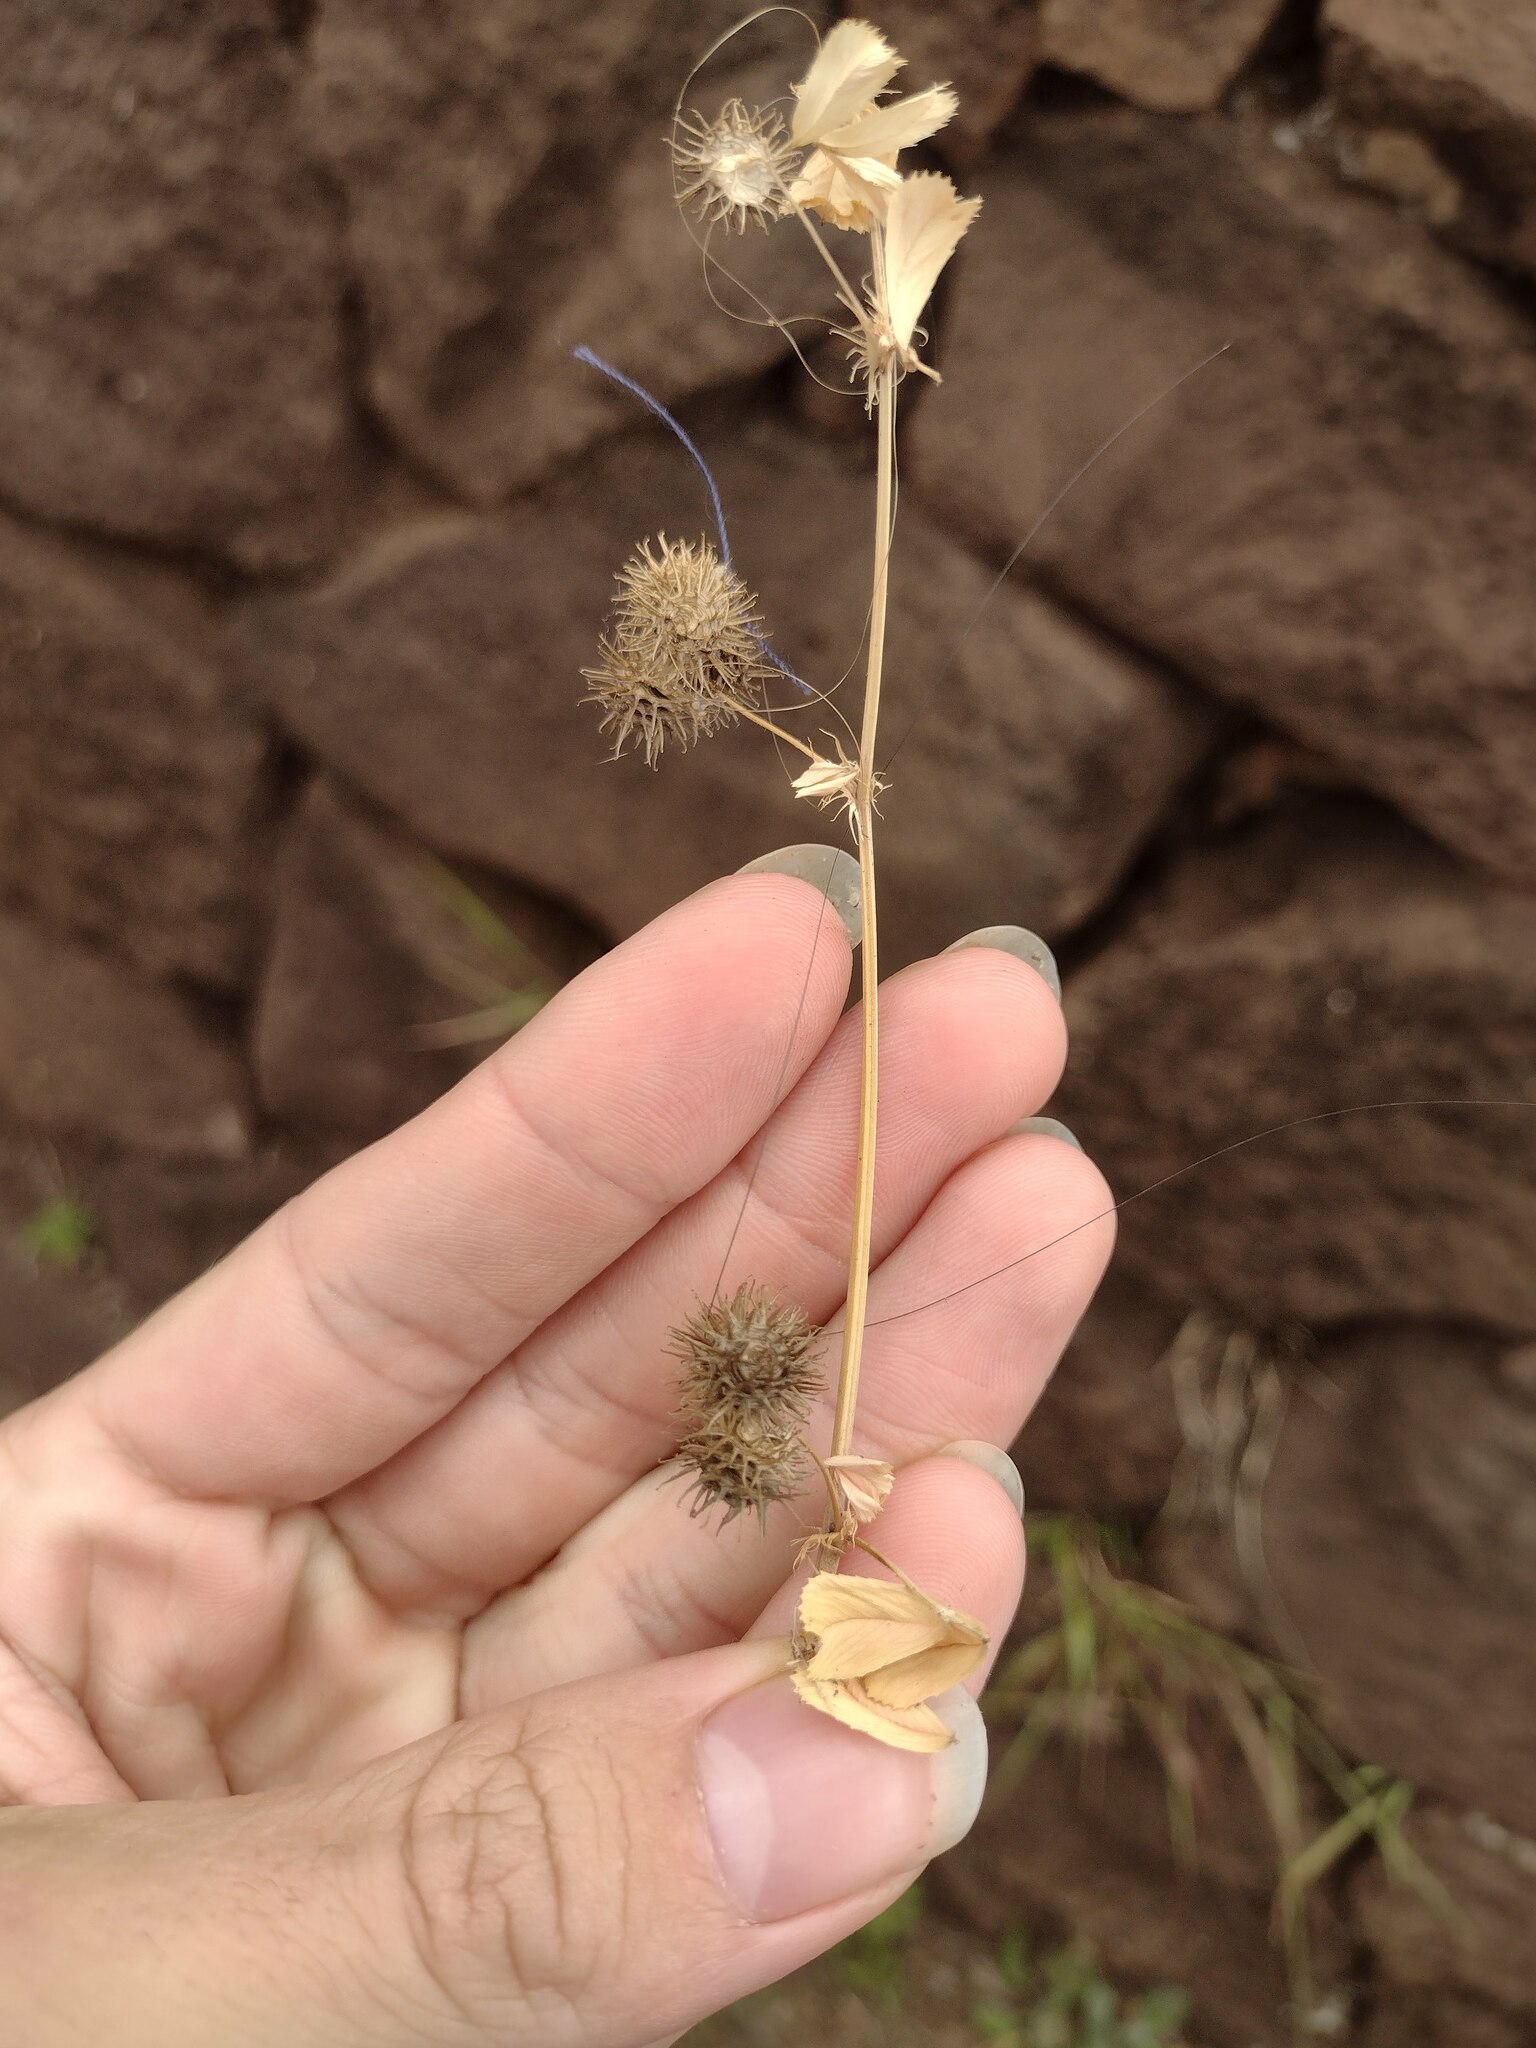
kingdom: Plantae
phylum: Tracheophyta
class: Magnoliopsida
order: Fabales
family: Fabaceae
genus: Medicago
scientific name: Medicago polymorpha
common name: Burclover
